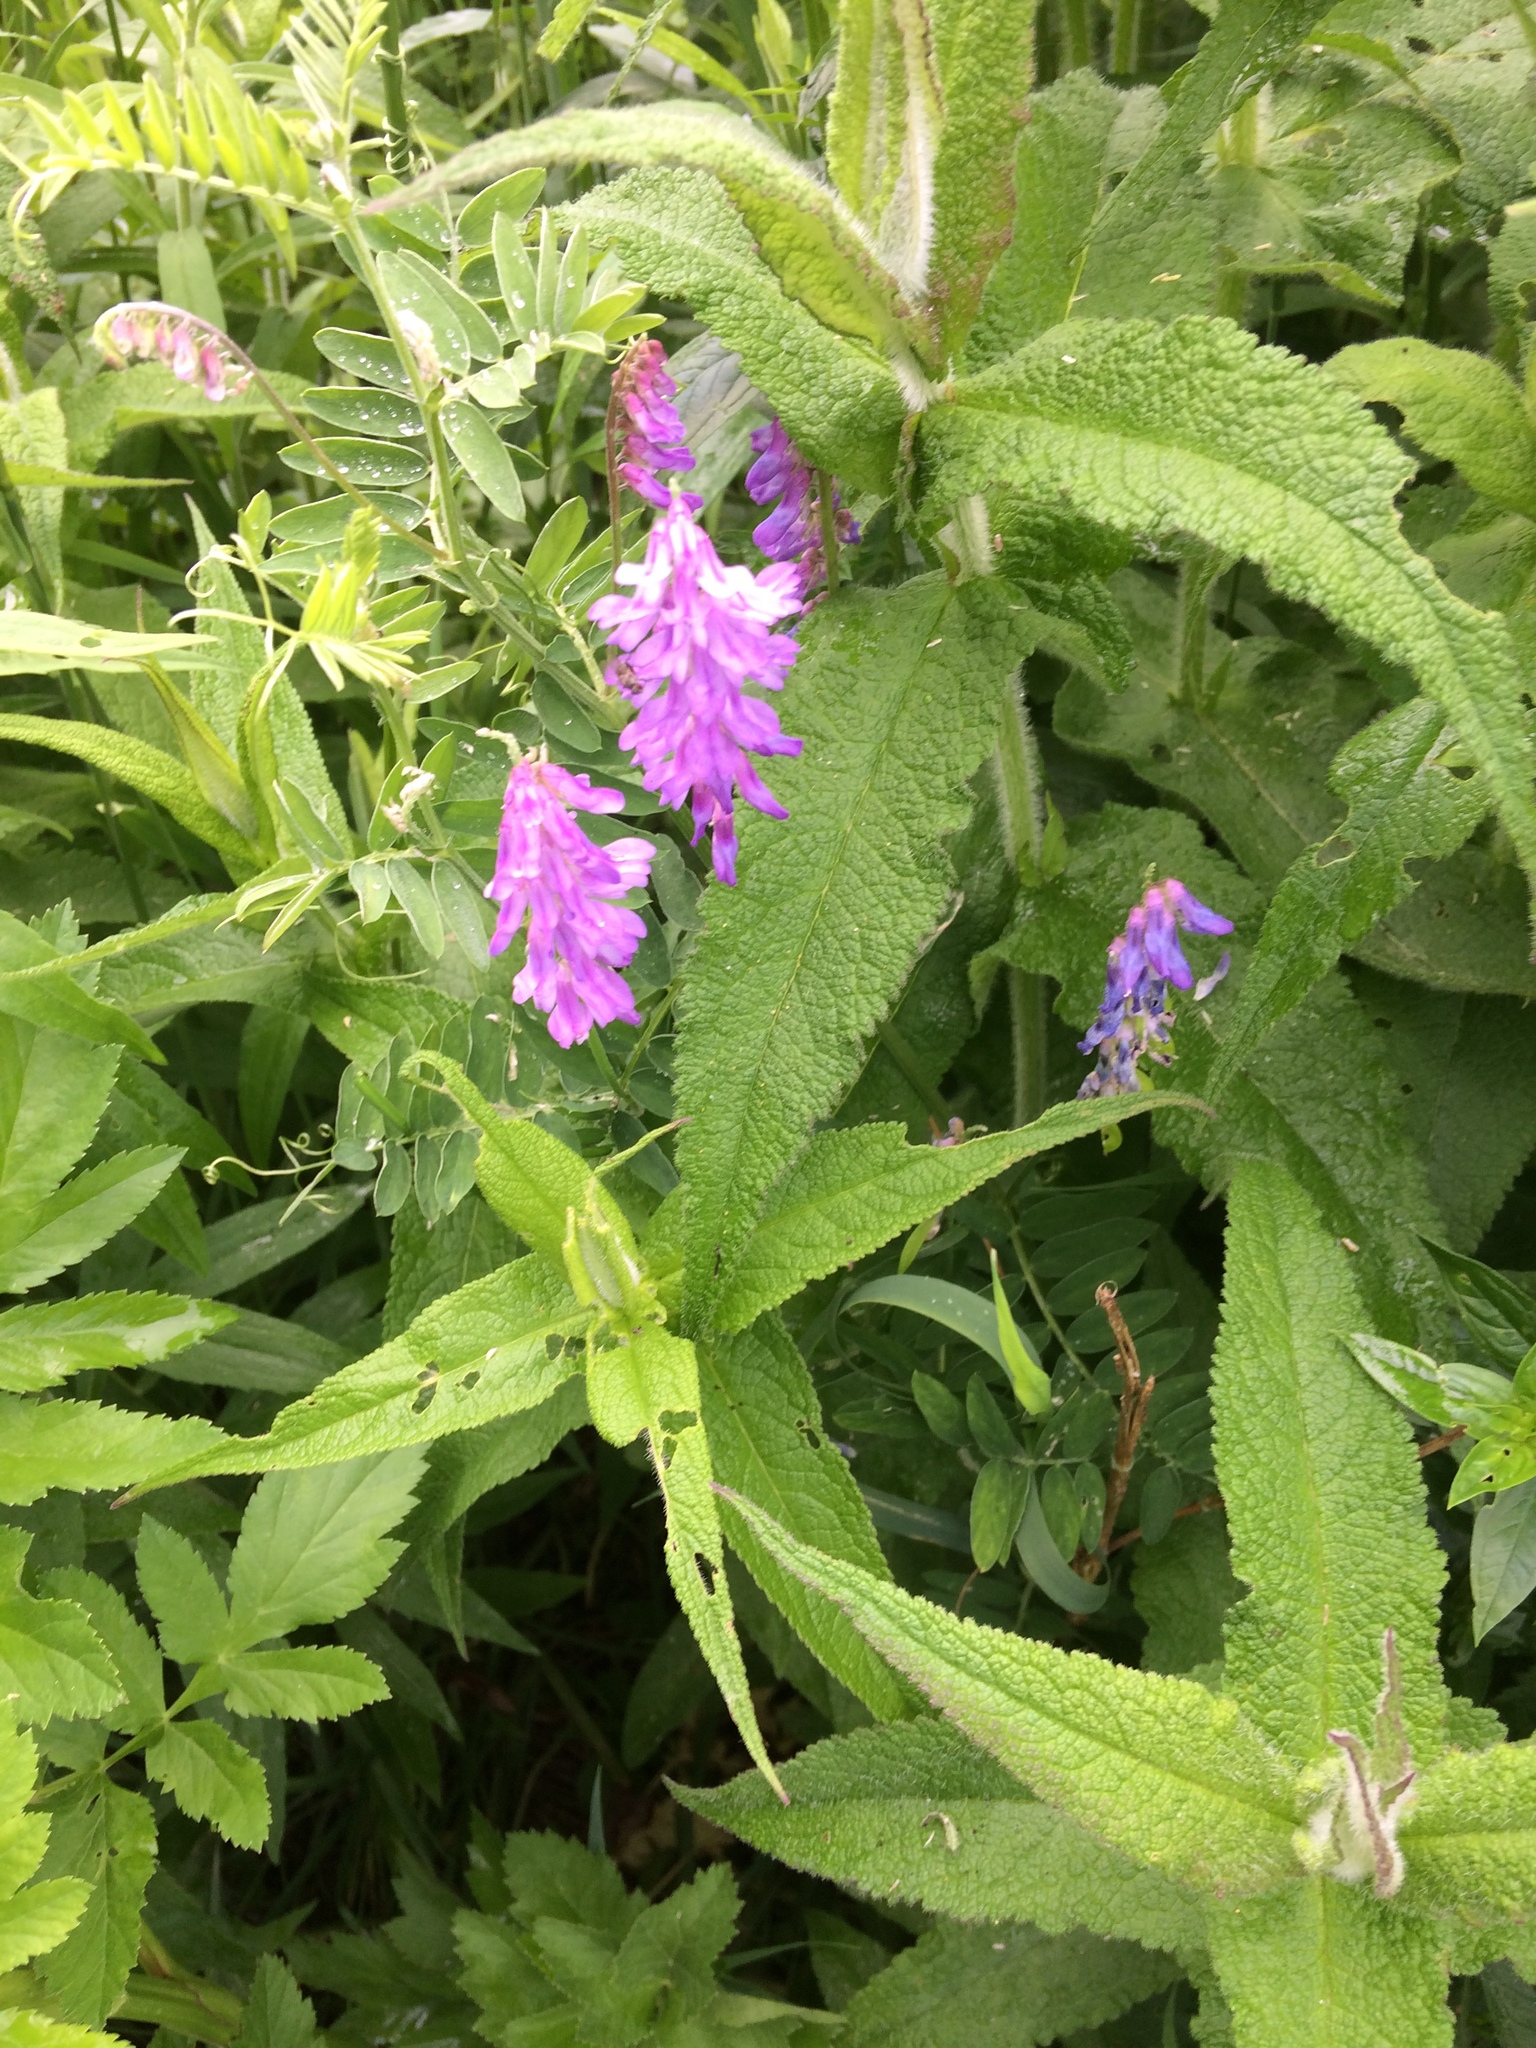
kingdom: Plantae
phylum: Tracheophyta
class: Magnoliopsida
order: Fabales
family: Fabaceae
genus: Vicia
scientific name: Vicia cracca
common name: Bird vetch
